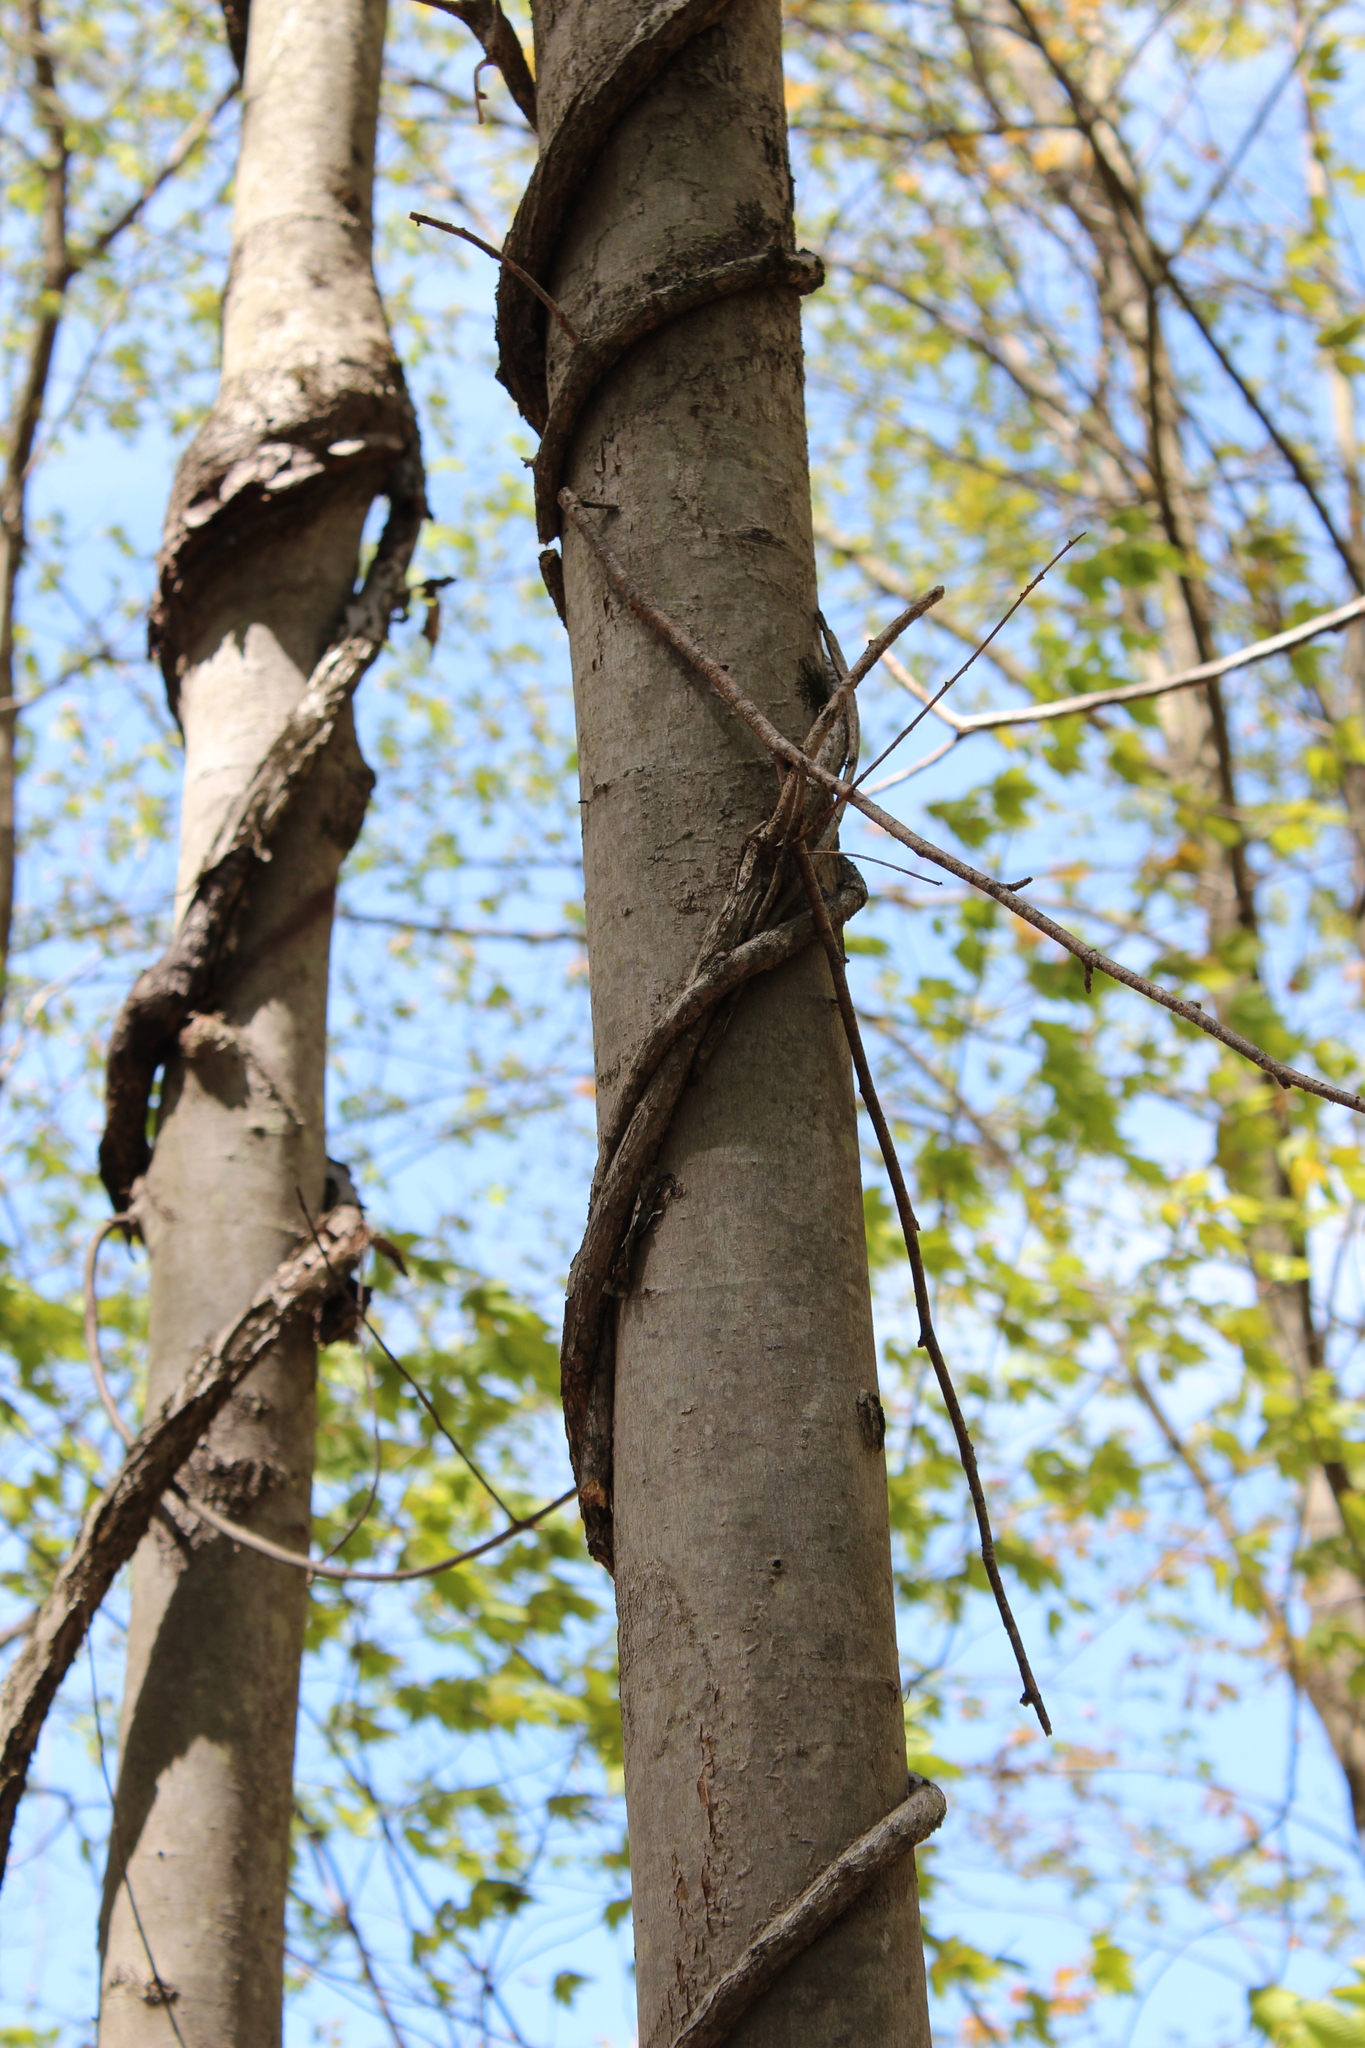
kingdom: Plantae
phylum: Tracheophyta
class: Magnoliopsida
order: Celastrales
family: Celastraceae
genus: Celastrus
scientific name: Celastrus orbiculatus
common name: Oriental bittersweet
